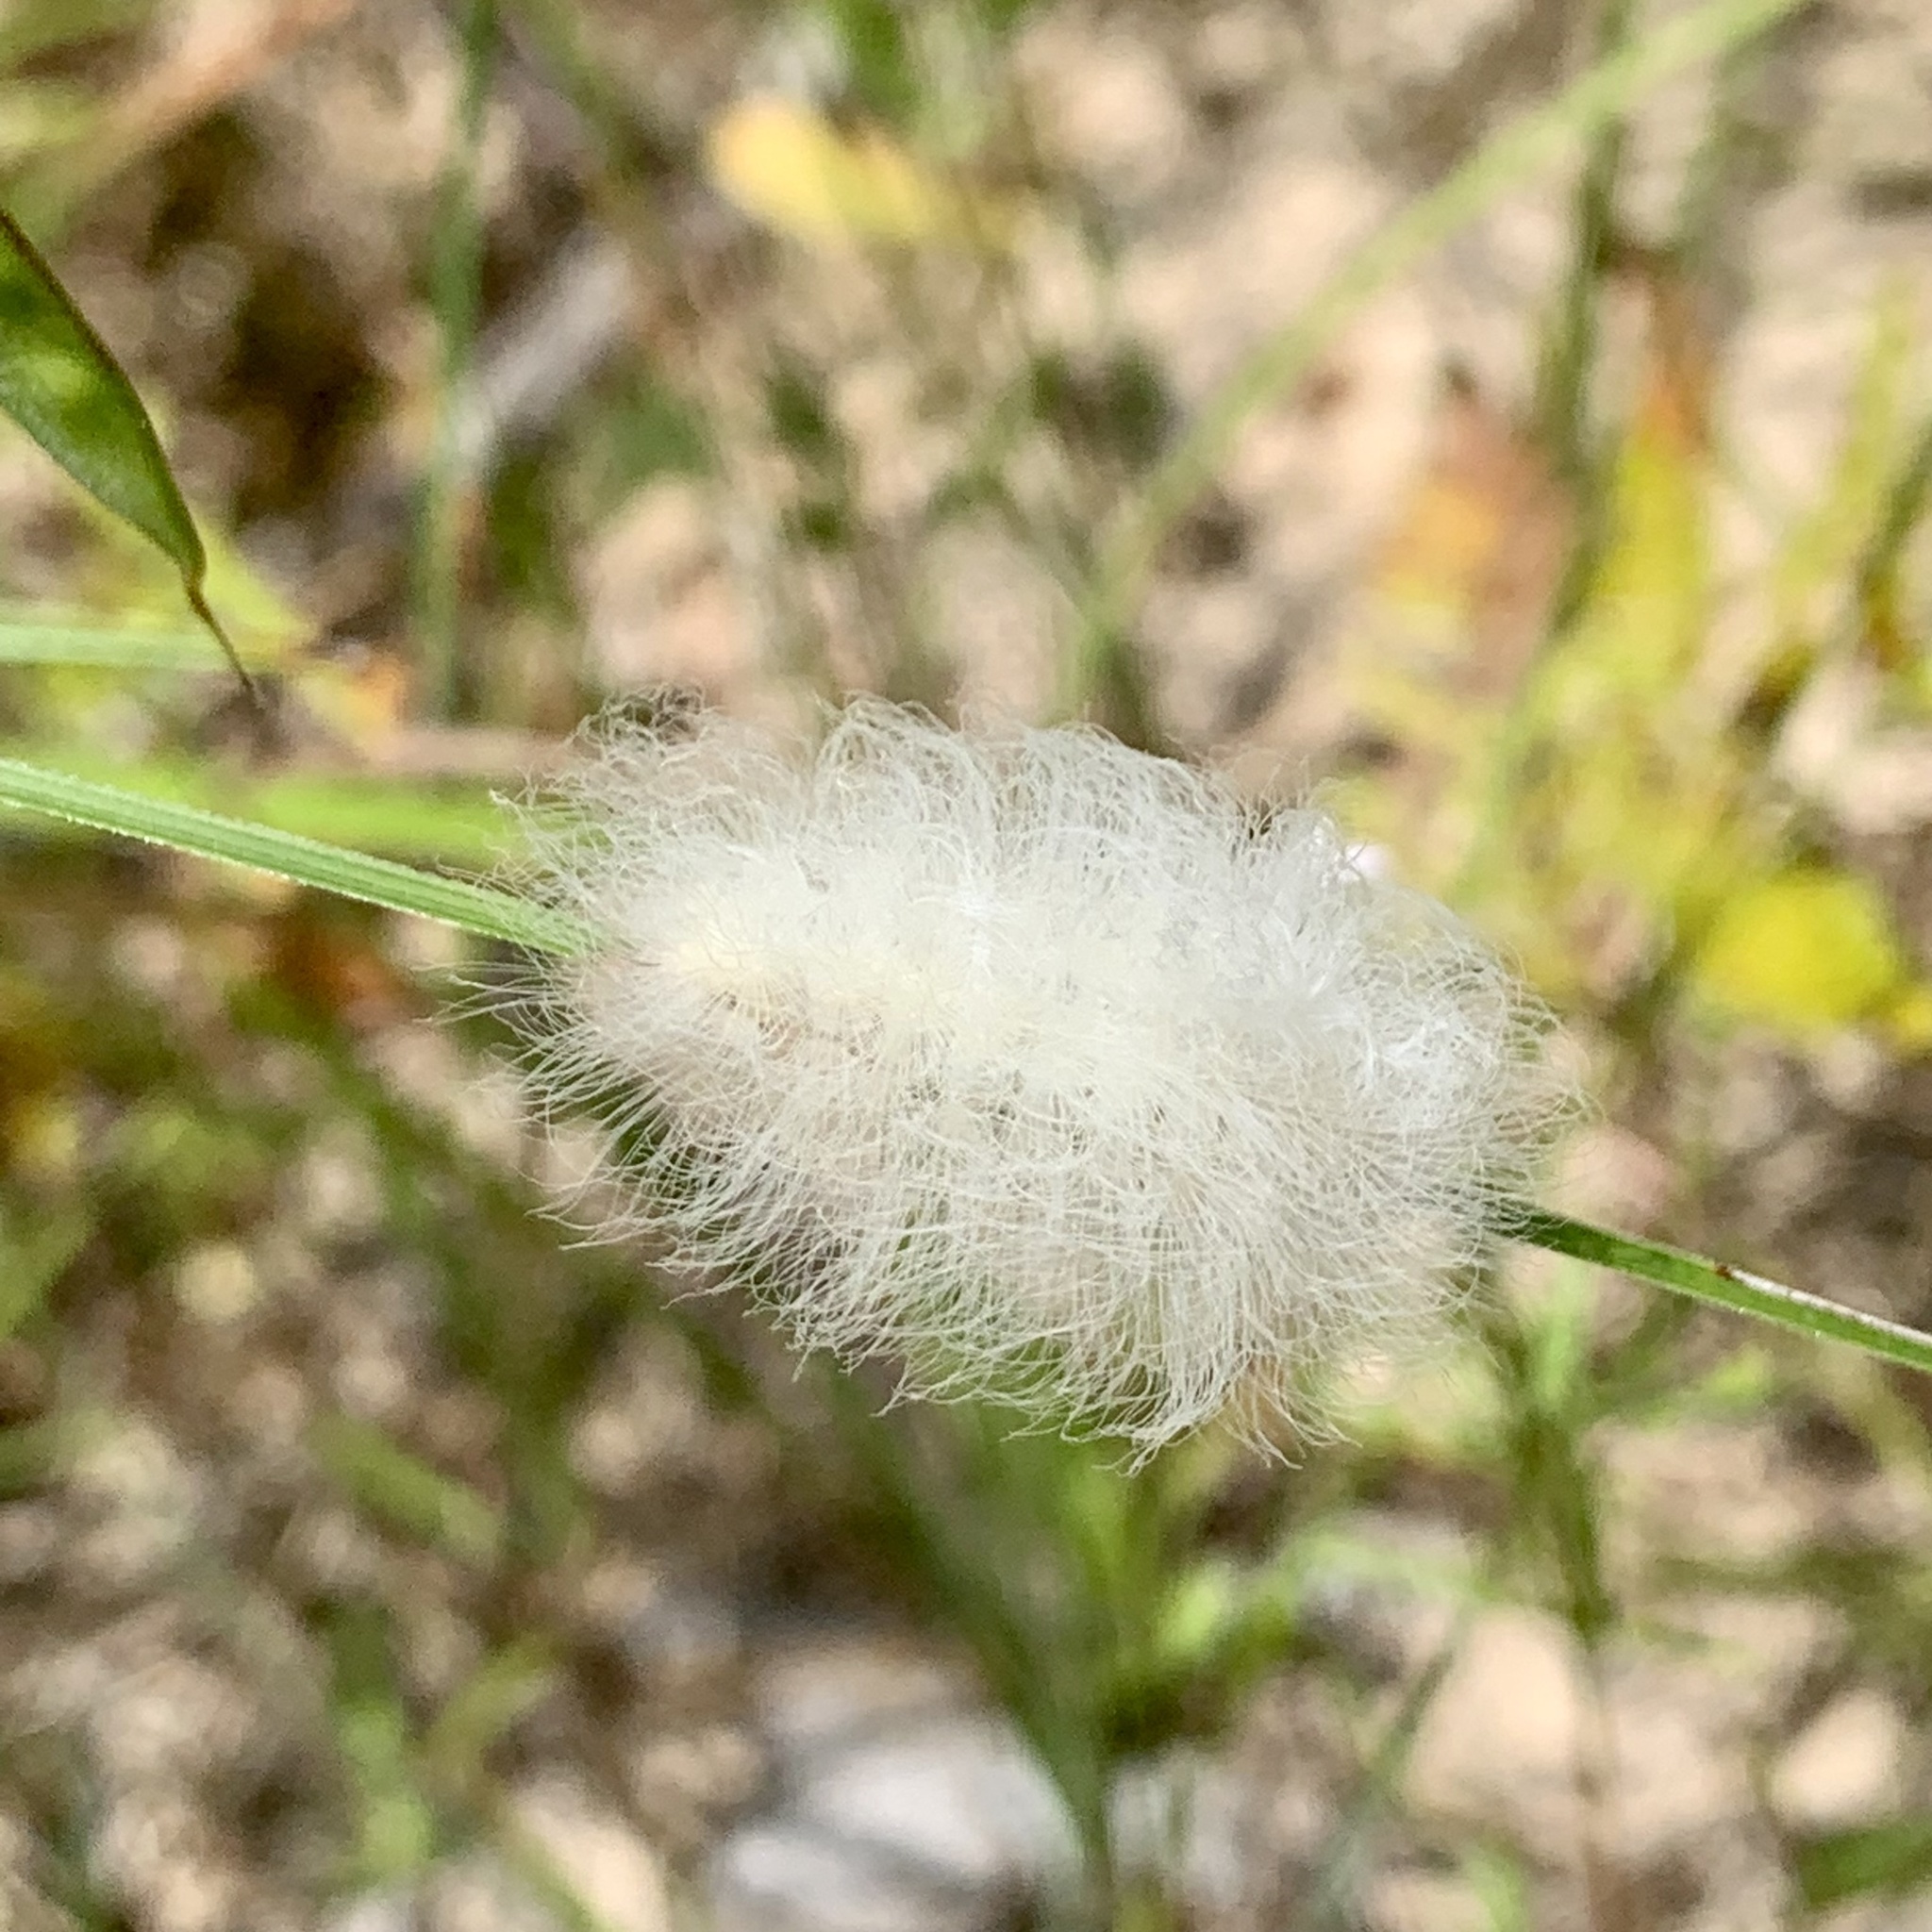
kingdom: Animalia
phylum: Arthropoda
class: Insecta
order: Lepidoptera
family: Megalopygidae
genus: Megalopyge
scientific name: Megalopyge crispata
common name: Black-waved flannel moth
